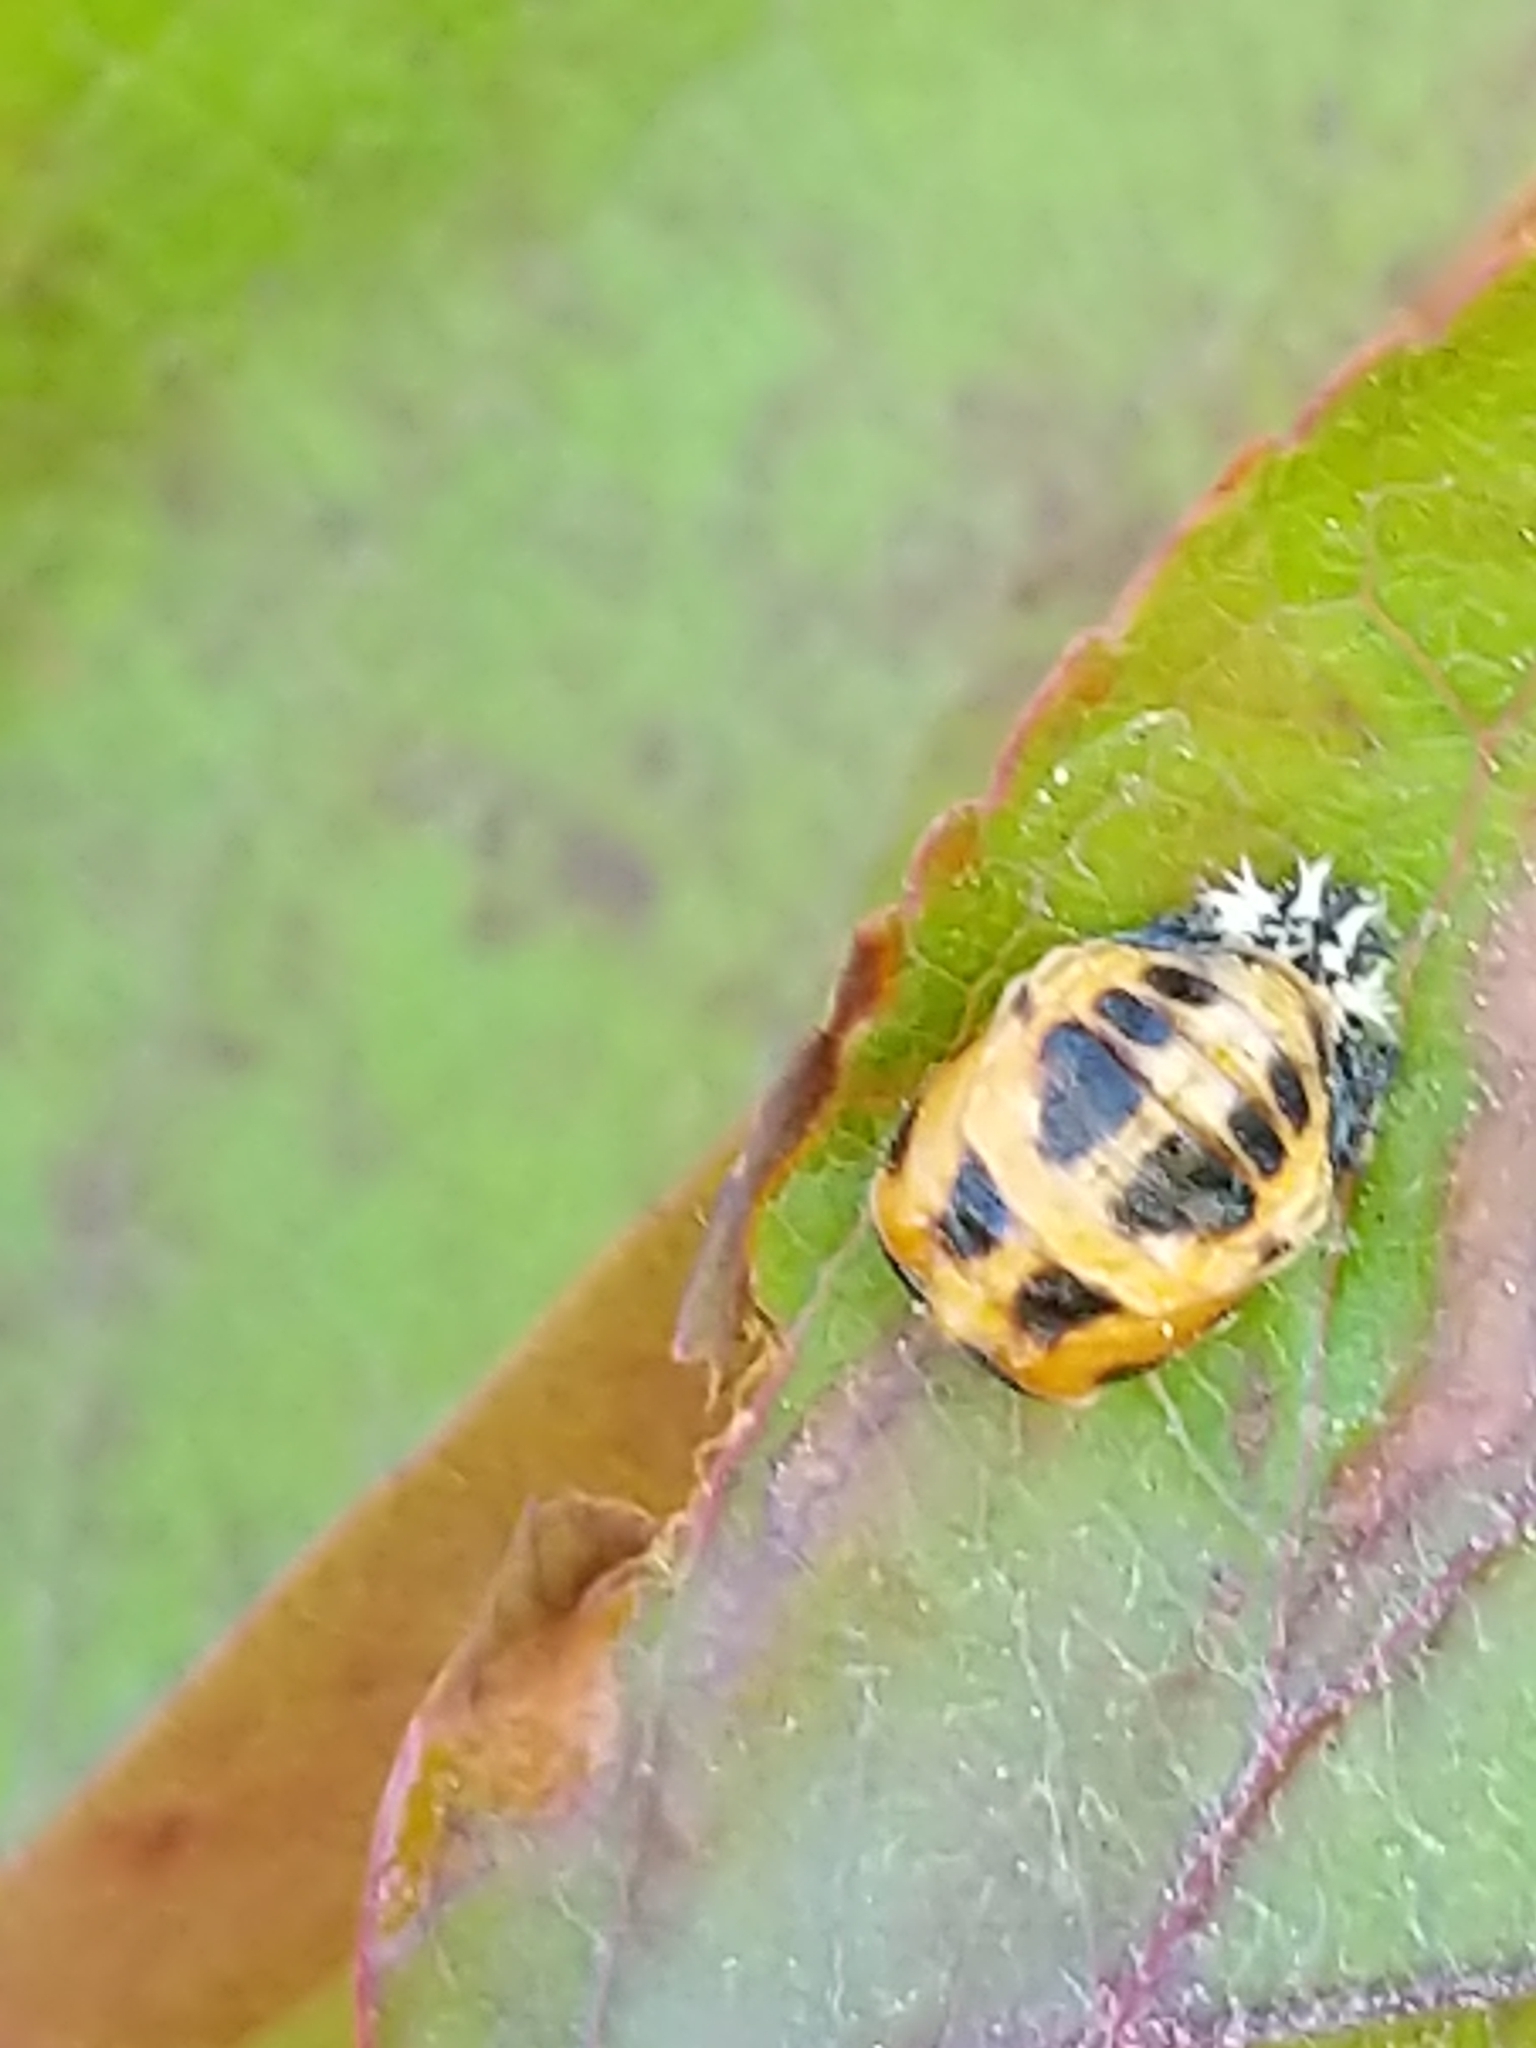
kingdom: Animalia
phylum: Arthropoda
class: Insecta
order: Coleoptera
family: Coccinellidae
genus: Harmonia
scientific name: Harmonia axyridis
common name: Harlequin ladybird
